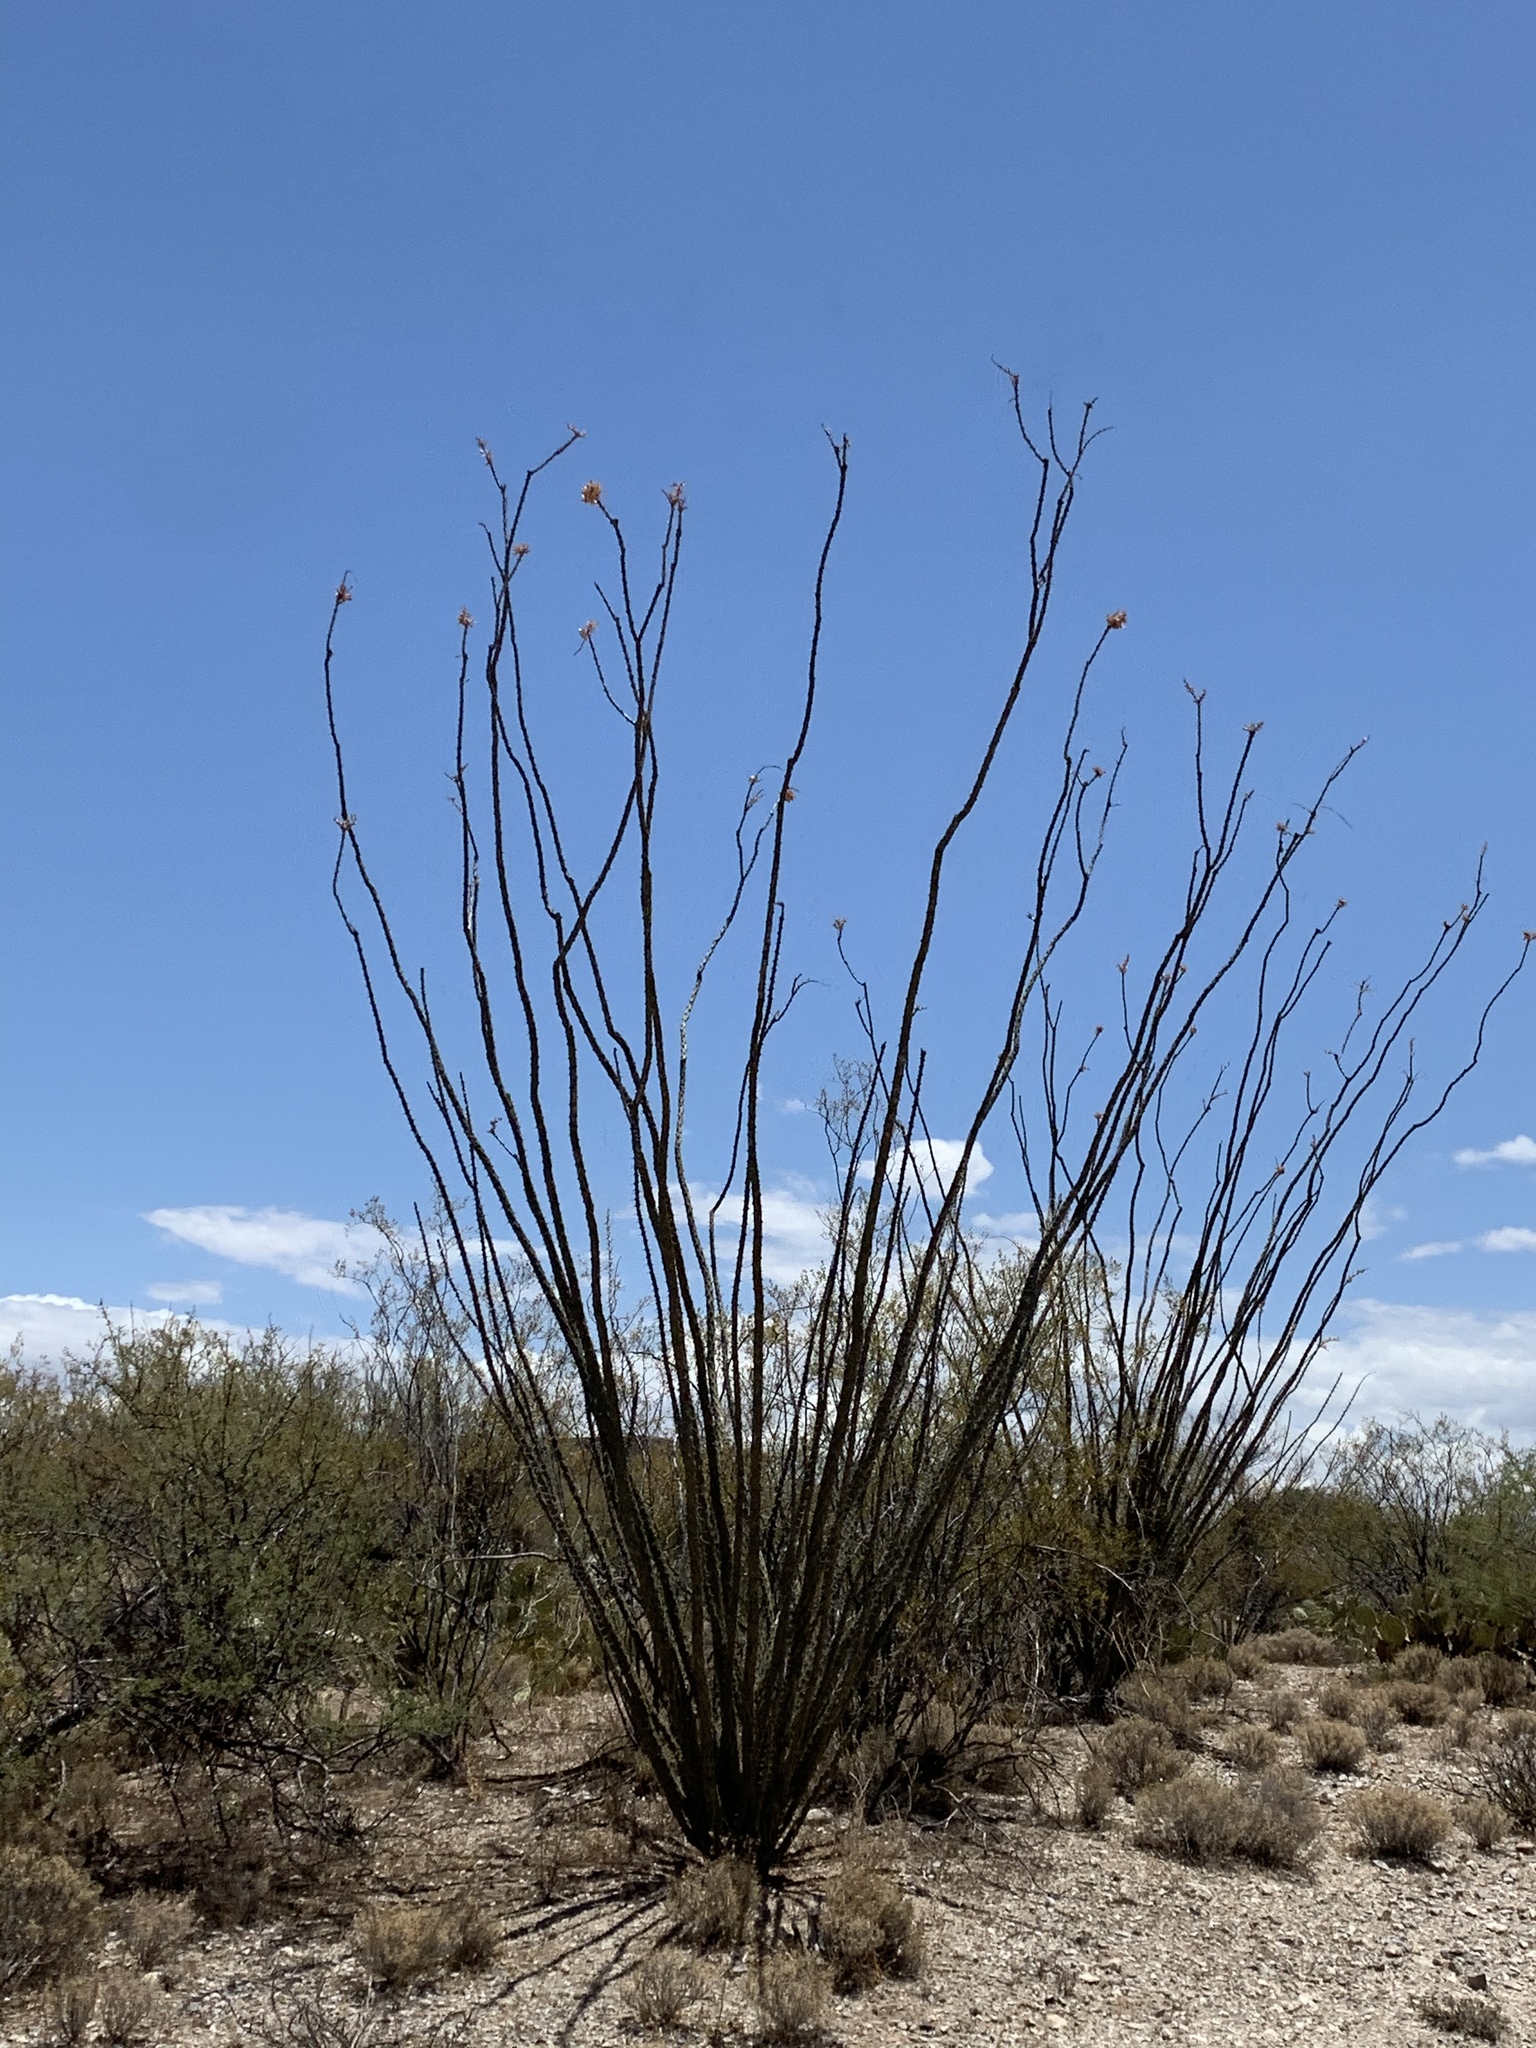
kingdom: Plantae
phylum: Tracheophyta
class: Magnoliopsida
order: Ericales
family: Fouquieriaceae
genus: Fouquieria
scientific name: Fouquieria splendens
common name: Vine-cactus
